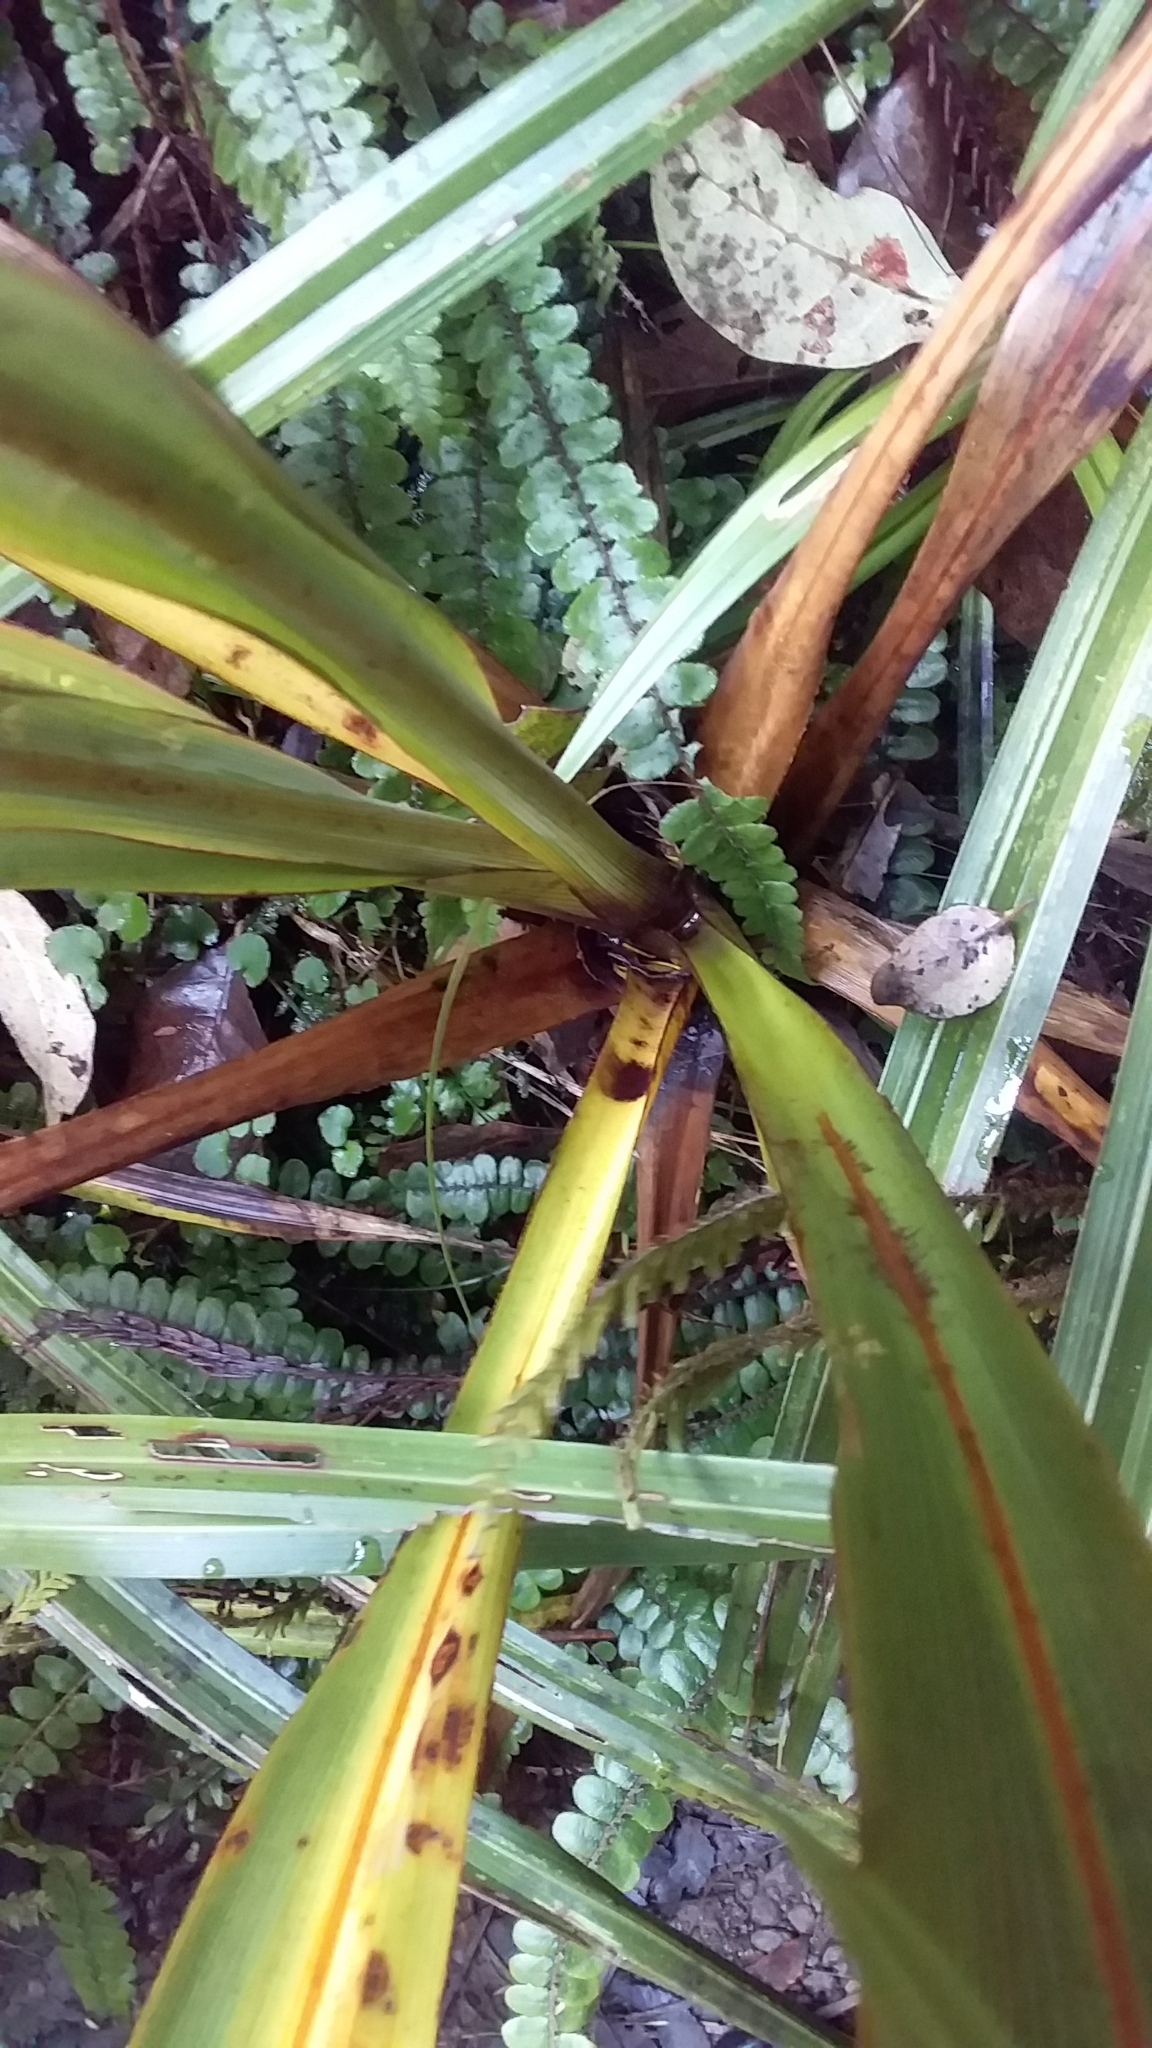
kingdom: Plantae
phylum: Tracheophyta
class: Liliopsida
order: Asparagales
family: Asparagaceae
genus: Cordyline
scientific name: Cordyline indivisa
